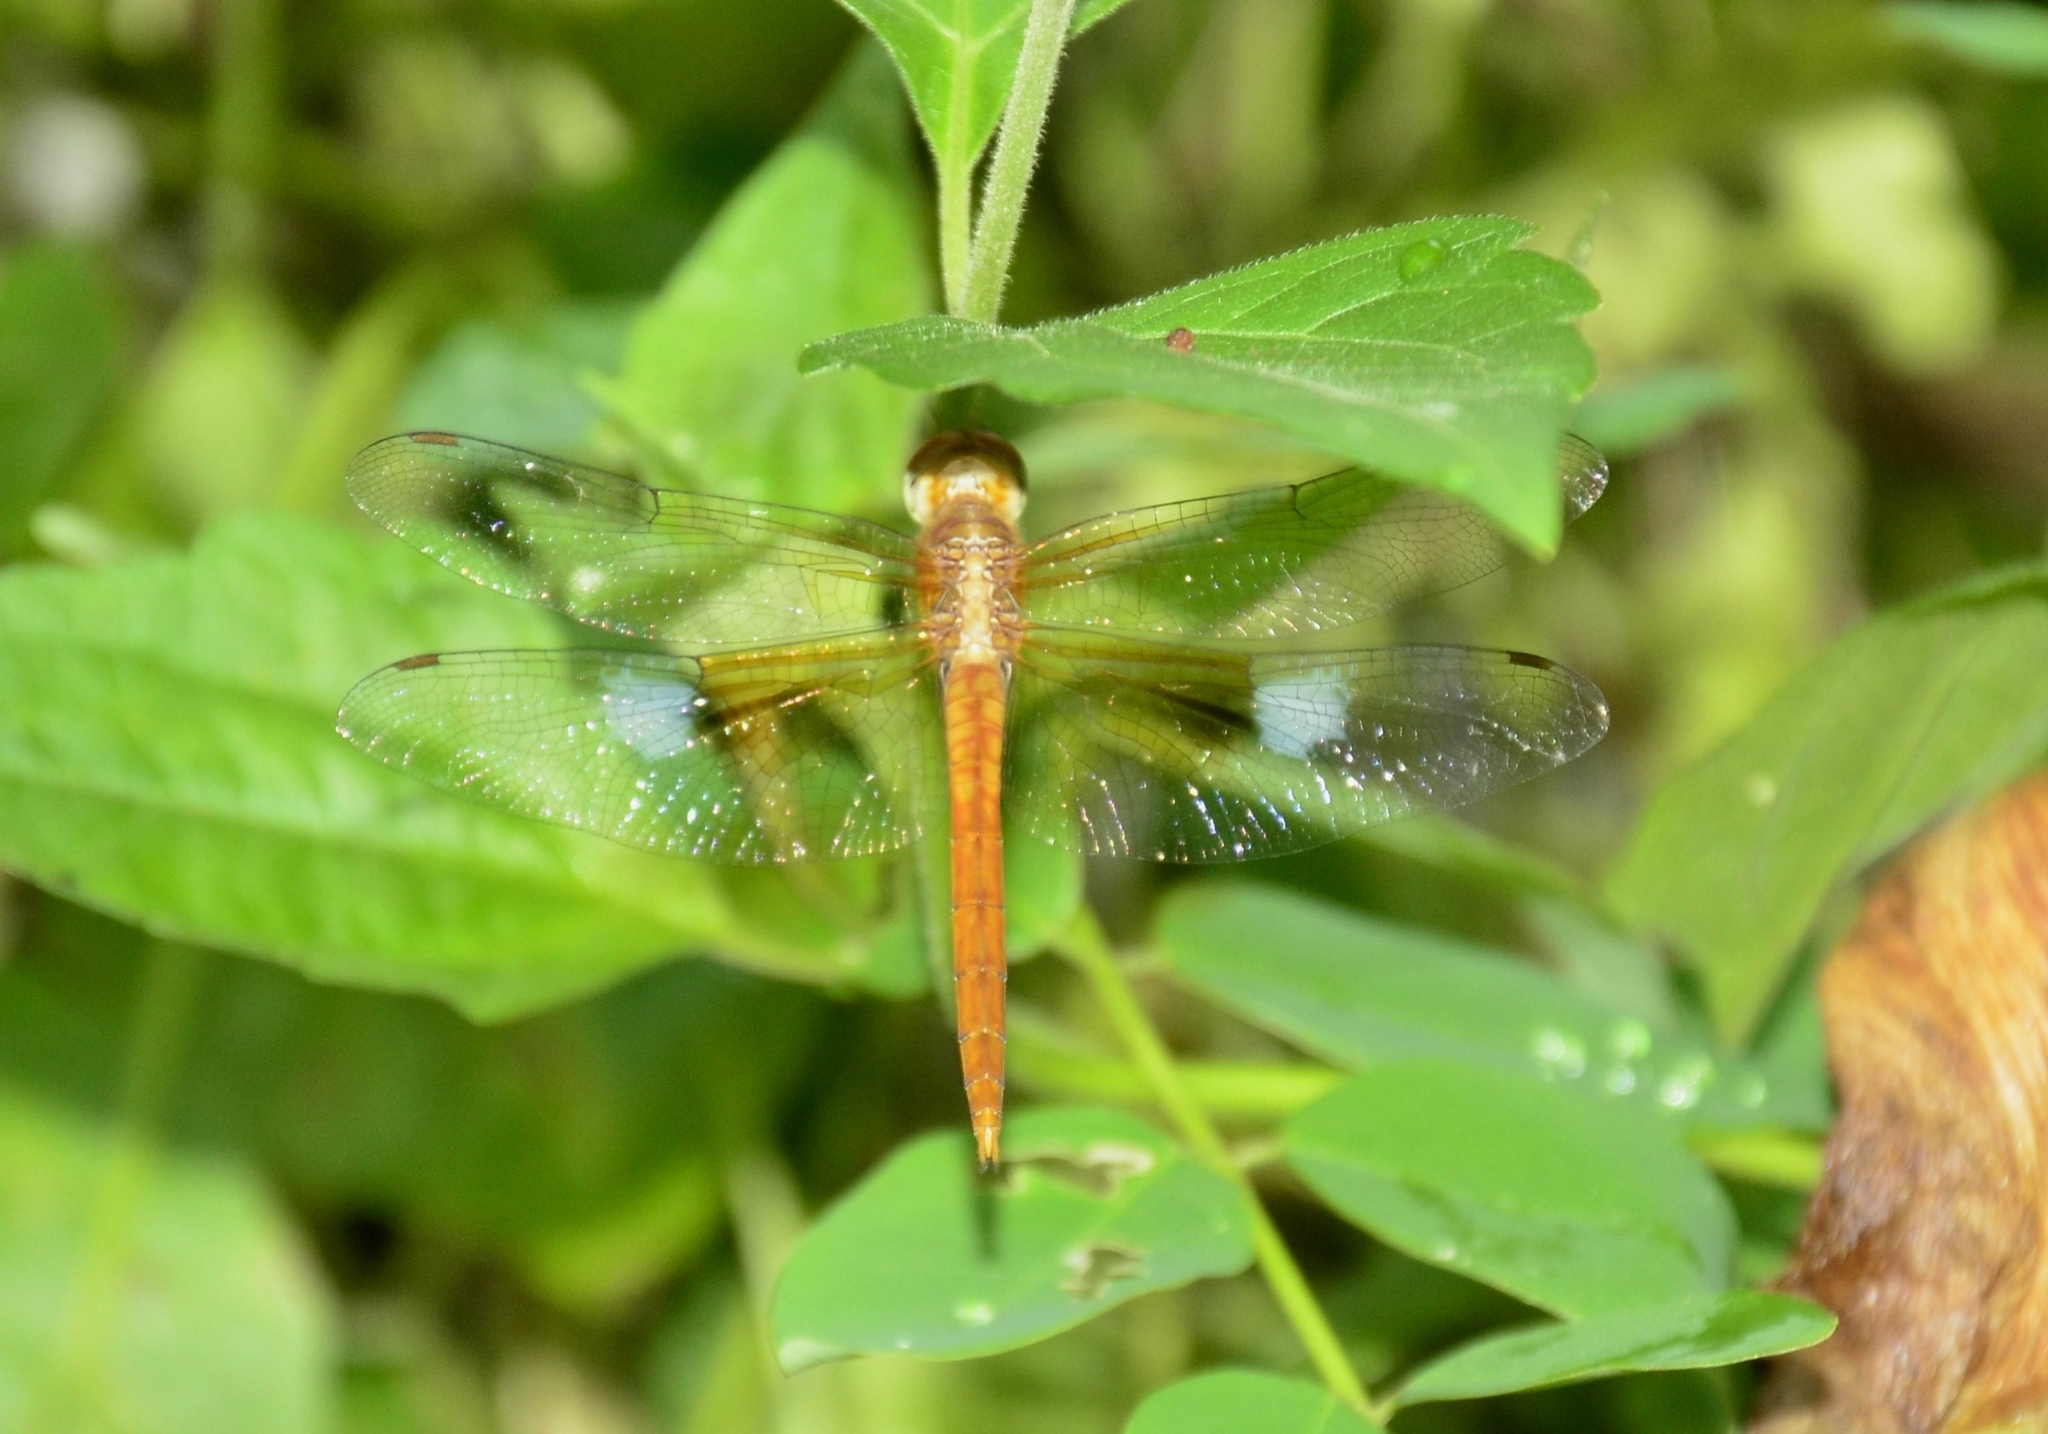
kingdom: Animalia
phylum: Arthropoda
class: Insecta
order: Odonata
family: Libellulidae
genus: Tholymis
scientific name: Tholymis tillarga
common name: Coral-tailed cloud wing
